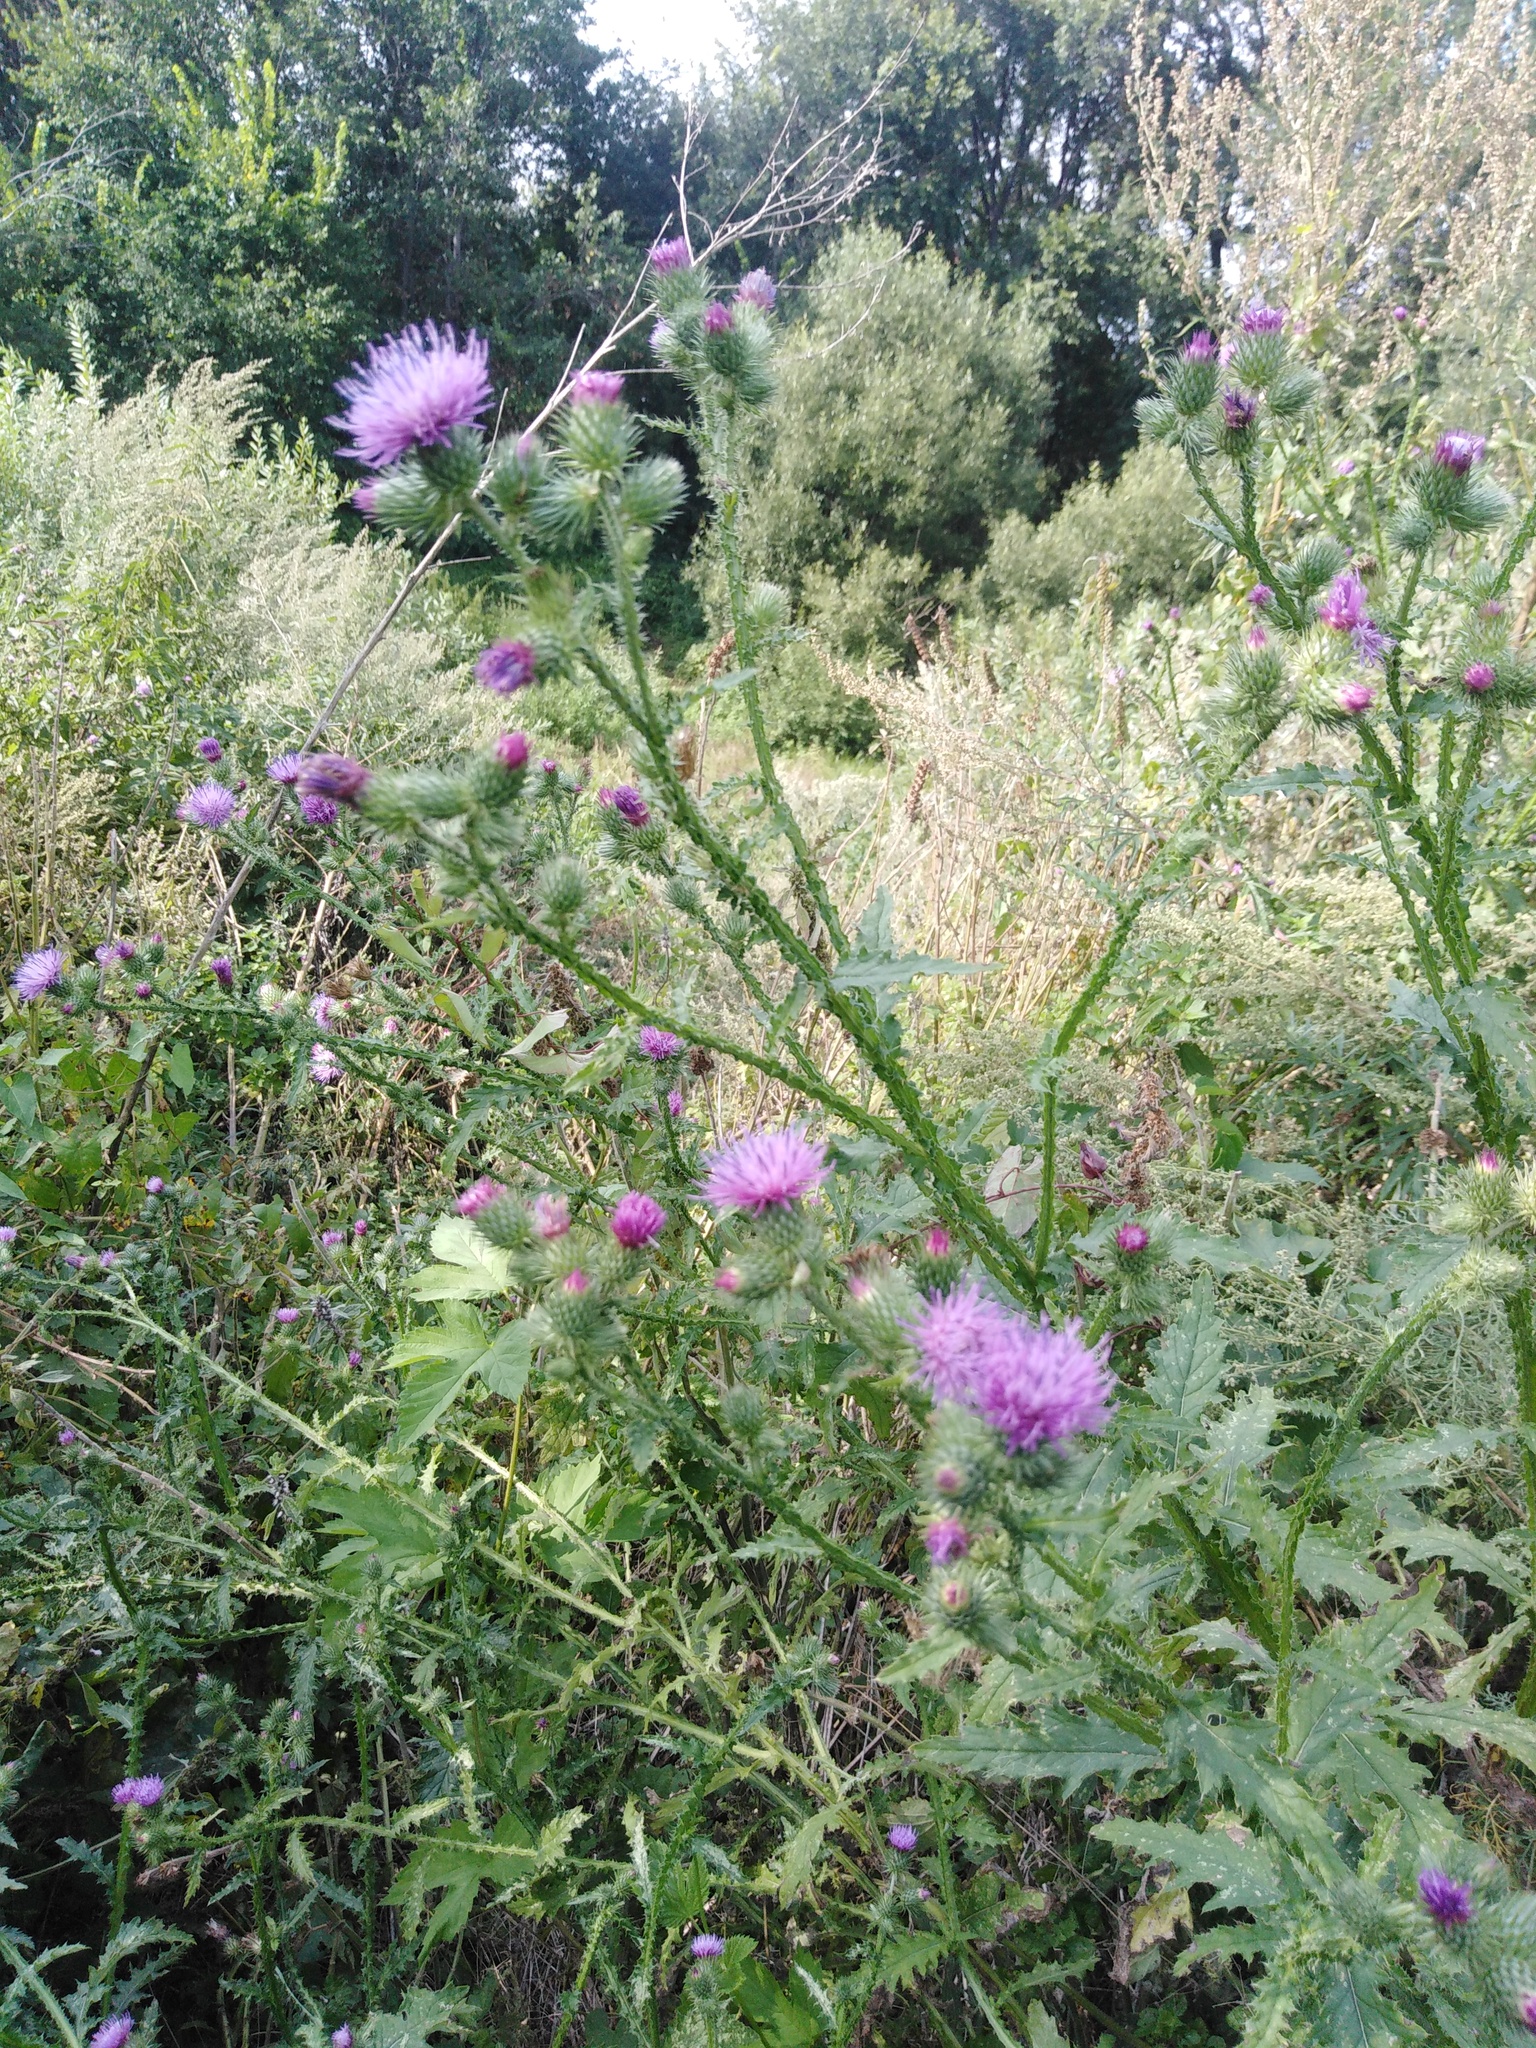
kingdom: Plantae
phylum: Tracheophyta
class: Magnoliopsida
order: Asterales
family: Asteraceae
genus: Carduus
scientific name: Carduus crispus
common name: Welted thistle
